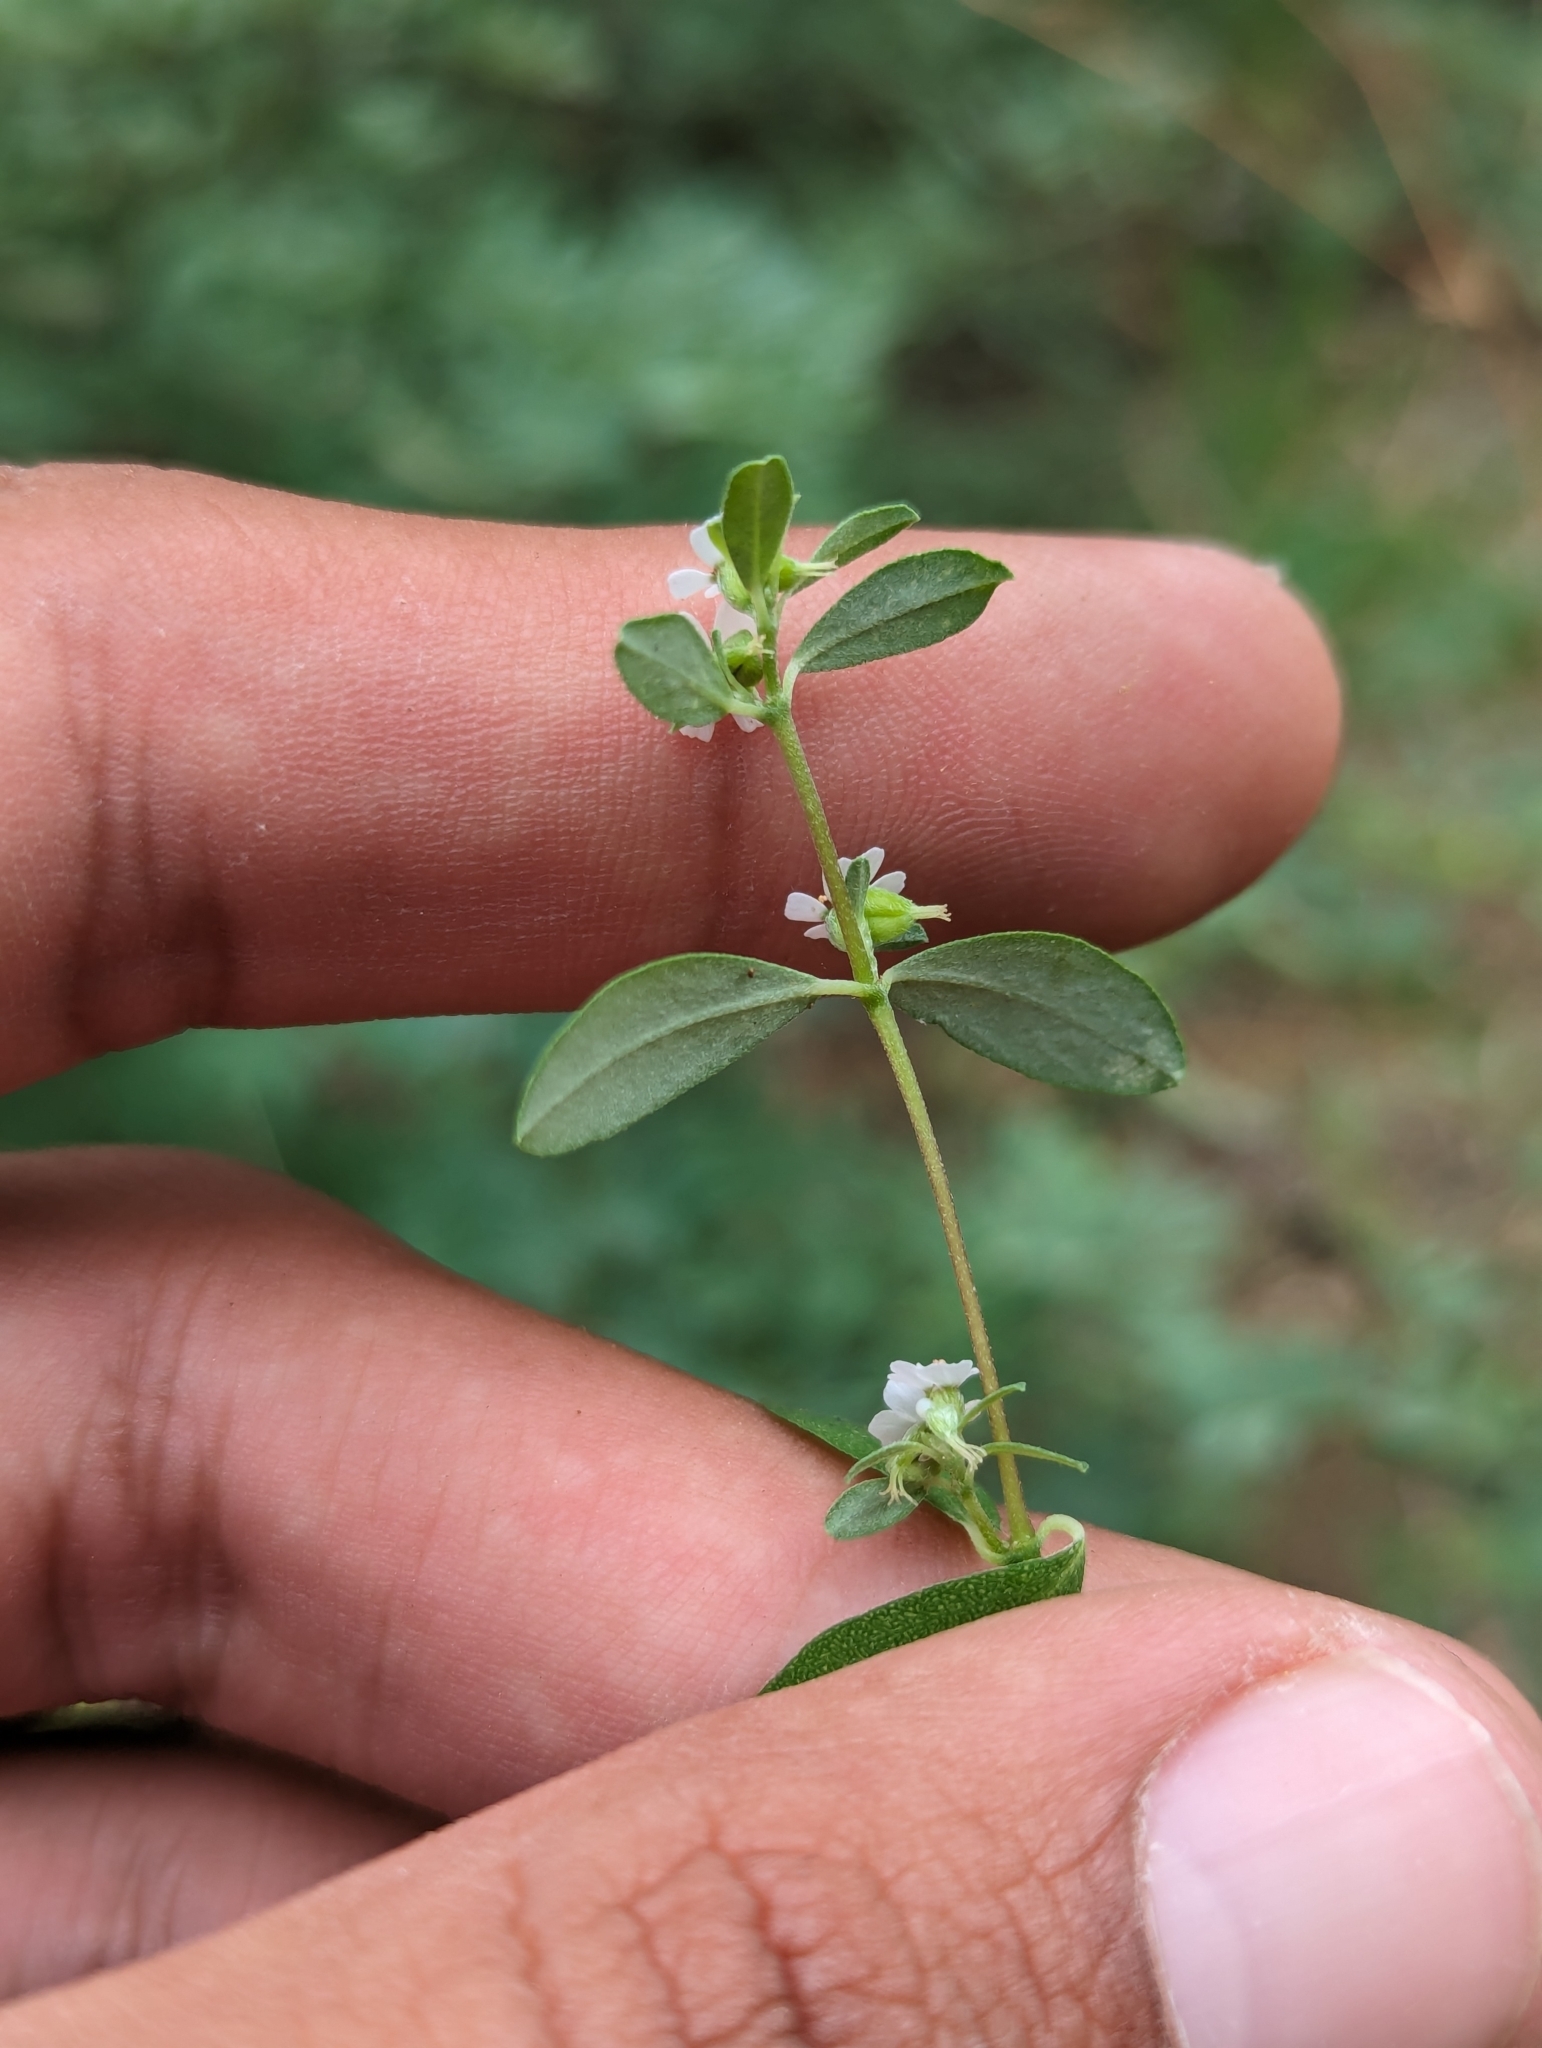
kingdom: Plantae
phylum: Tracheophyta
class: Magnoliopsida
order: Malpighiales
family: Euphorbiaceae
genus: Euphorbia
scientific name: Euphorbia pediculifera
